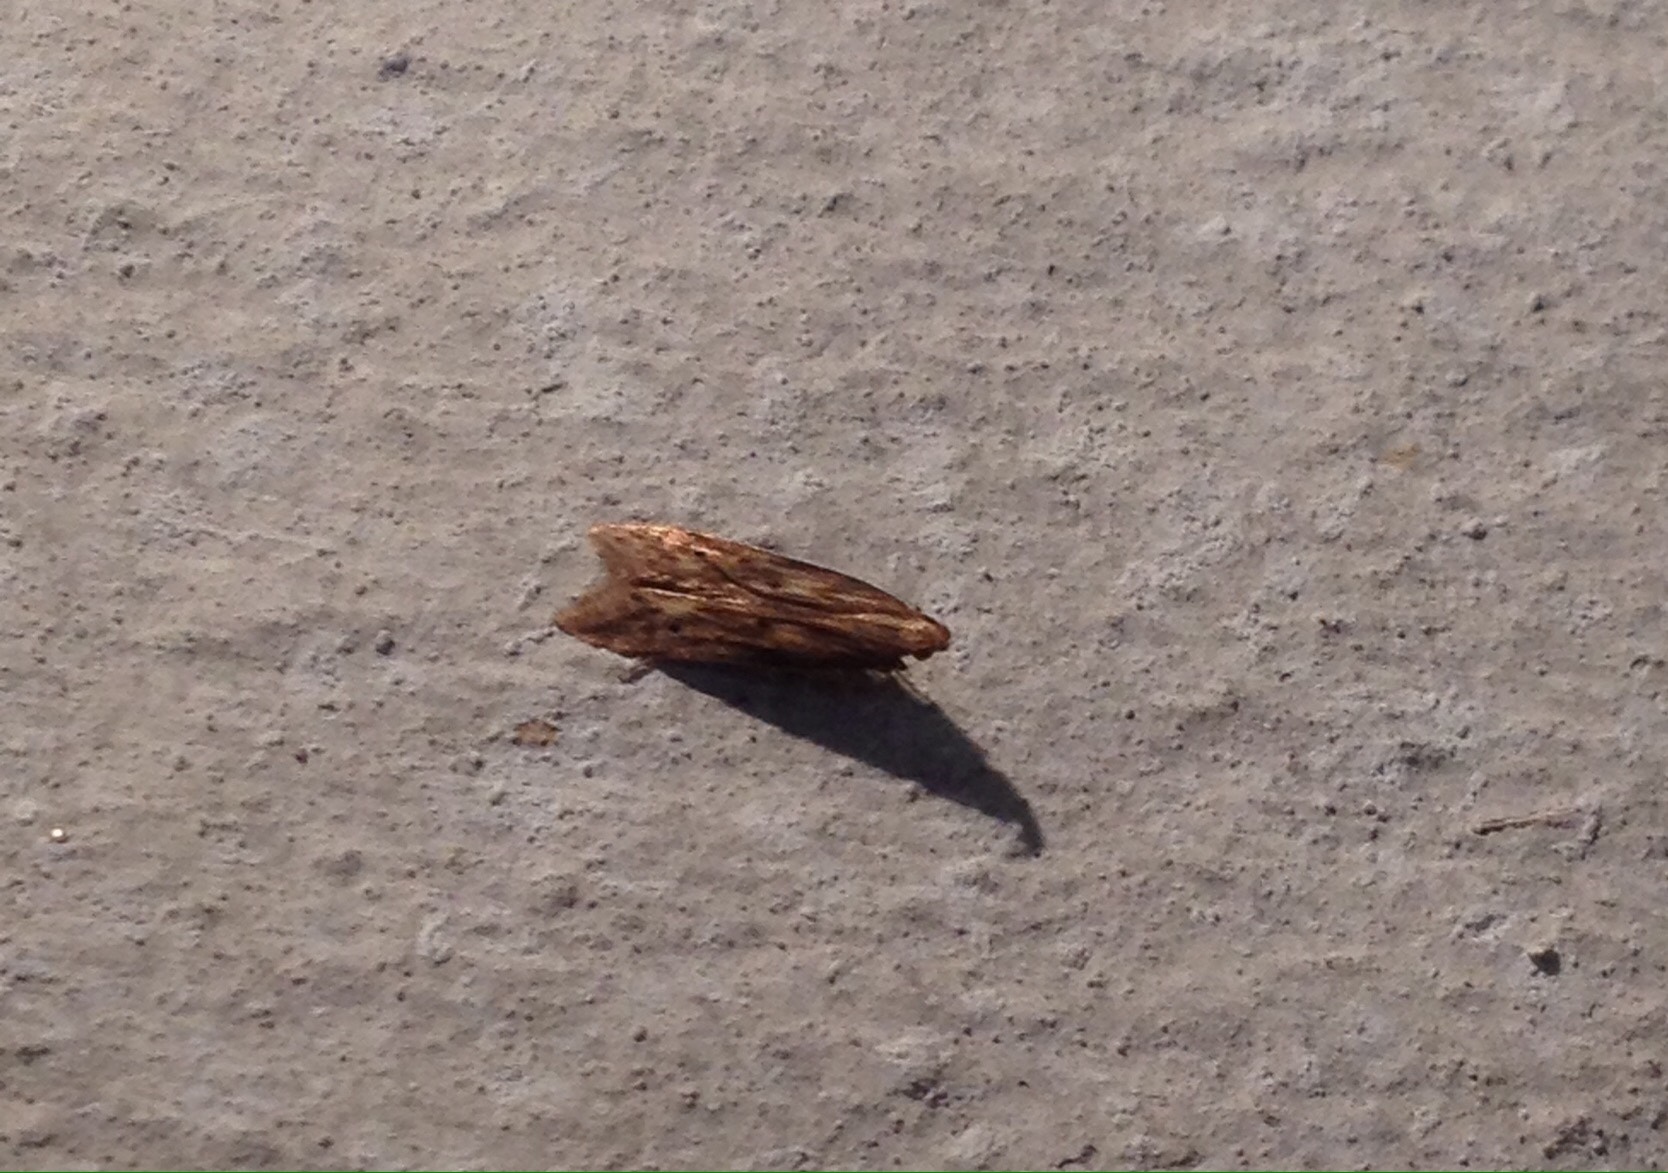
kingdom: Animalia
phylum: Arthropoda
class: Insecta
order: Lepidoptera
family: Gelechiidae
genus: Metzneria
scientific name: Metzneria ehikeella
